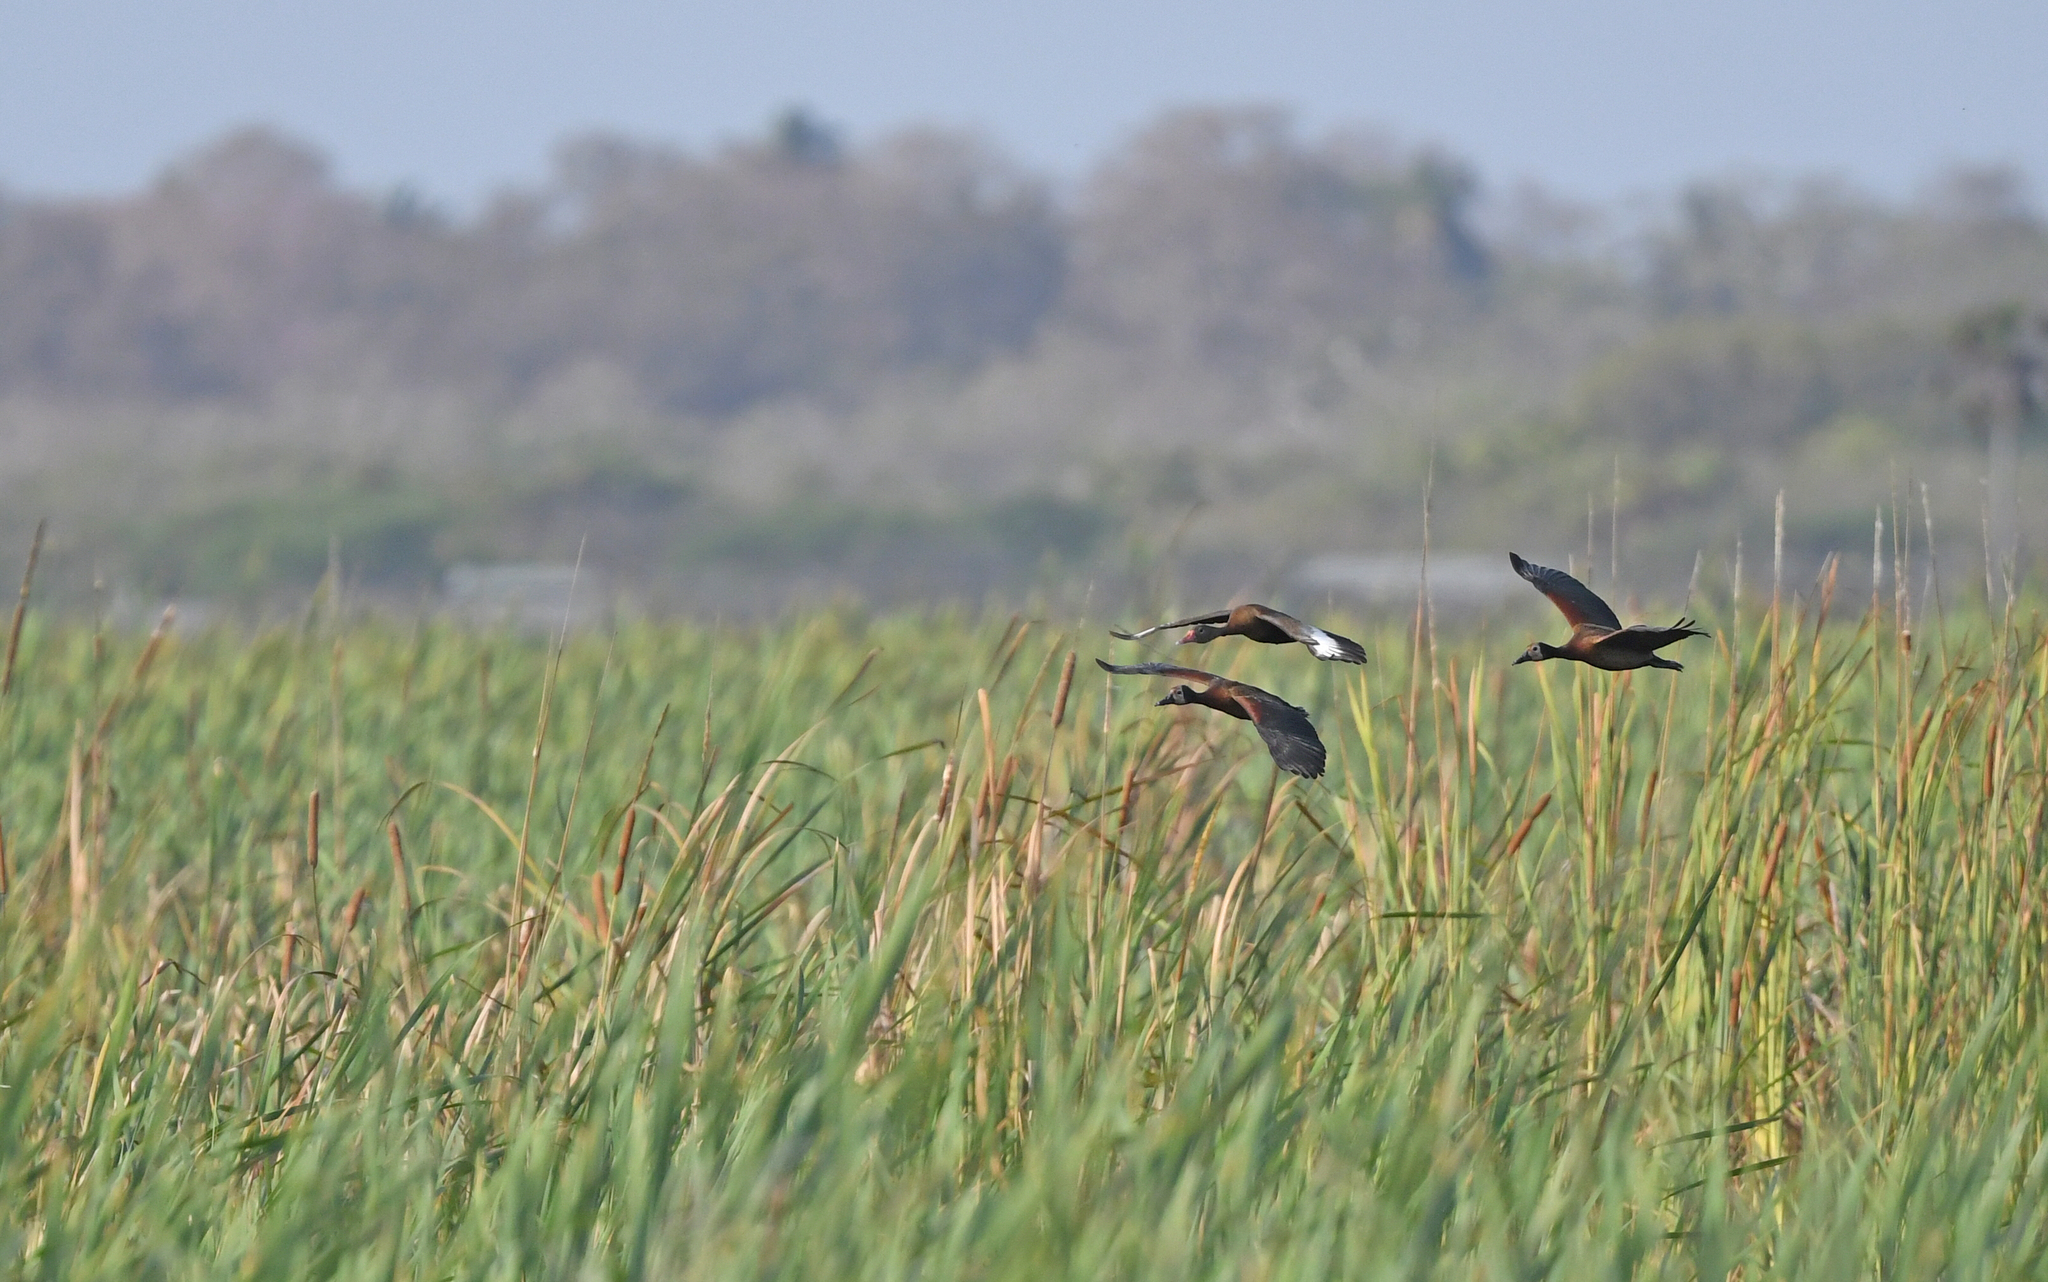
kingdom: Animalia
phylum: Chordata
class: Aves
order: Anseriformes
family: Anatidae
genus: Dendrocygna
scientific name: Dendrocygna viduata
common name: White-faced whistling duck
